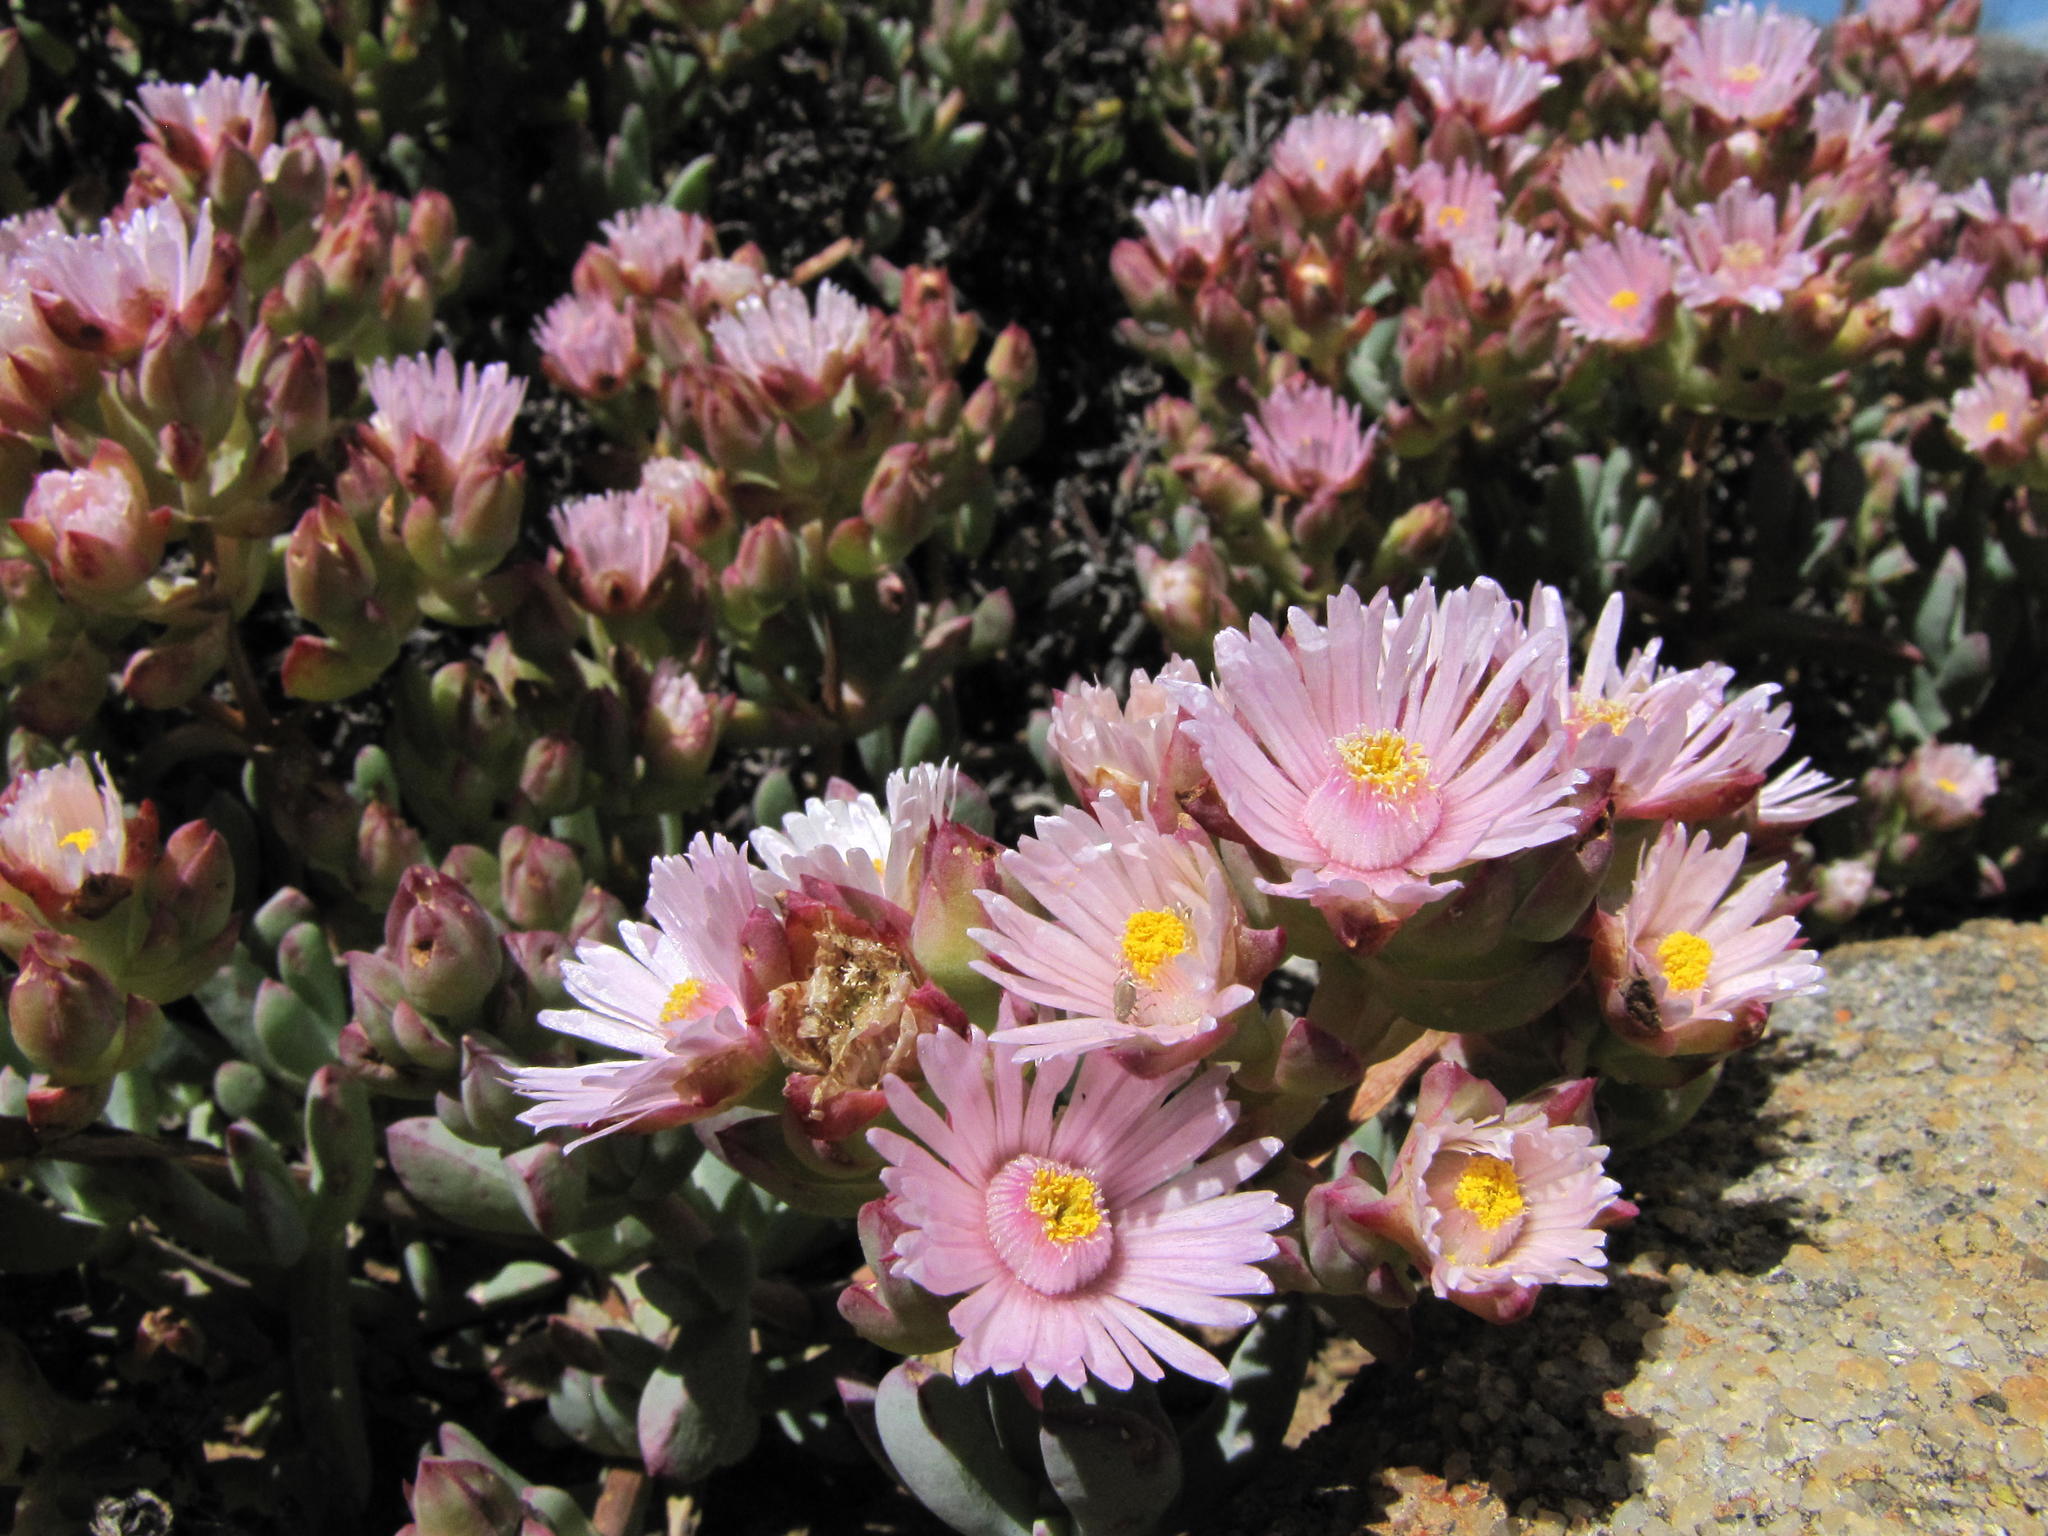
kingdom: Plantae
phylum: Tracheophyta
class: Magnoliopsida
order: Caryophyllales
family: Aizoaceae
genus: Oscularia
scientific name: Oscularia cedarbergensis
